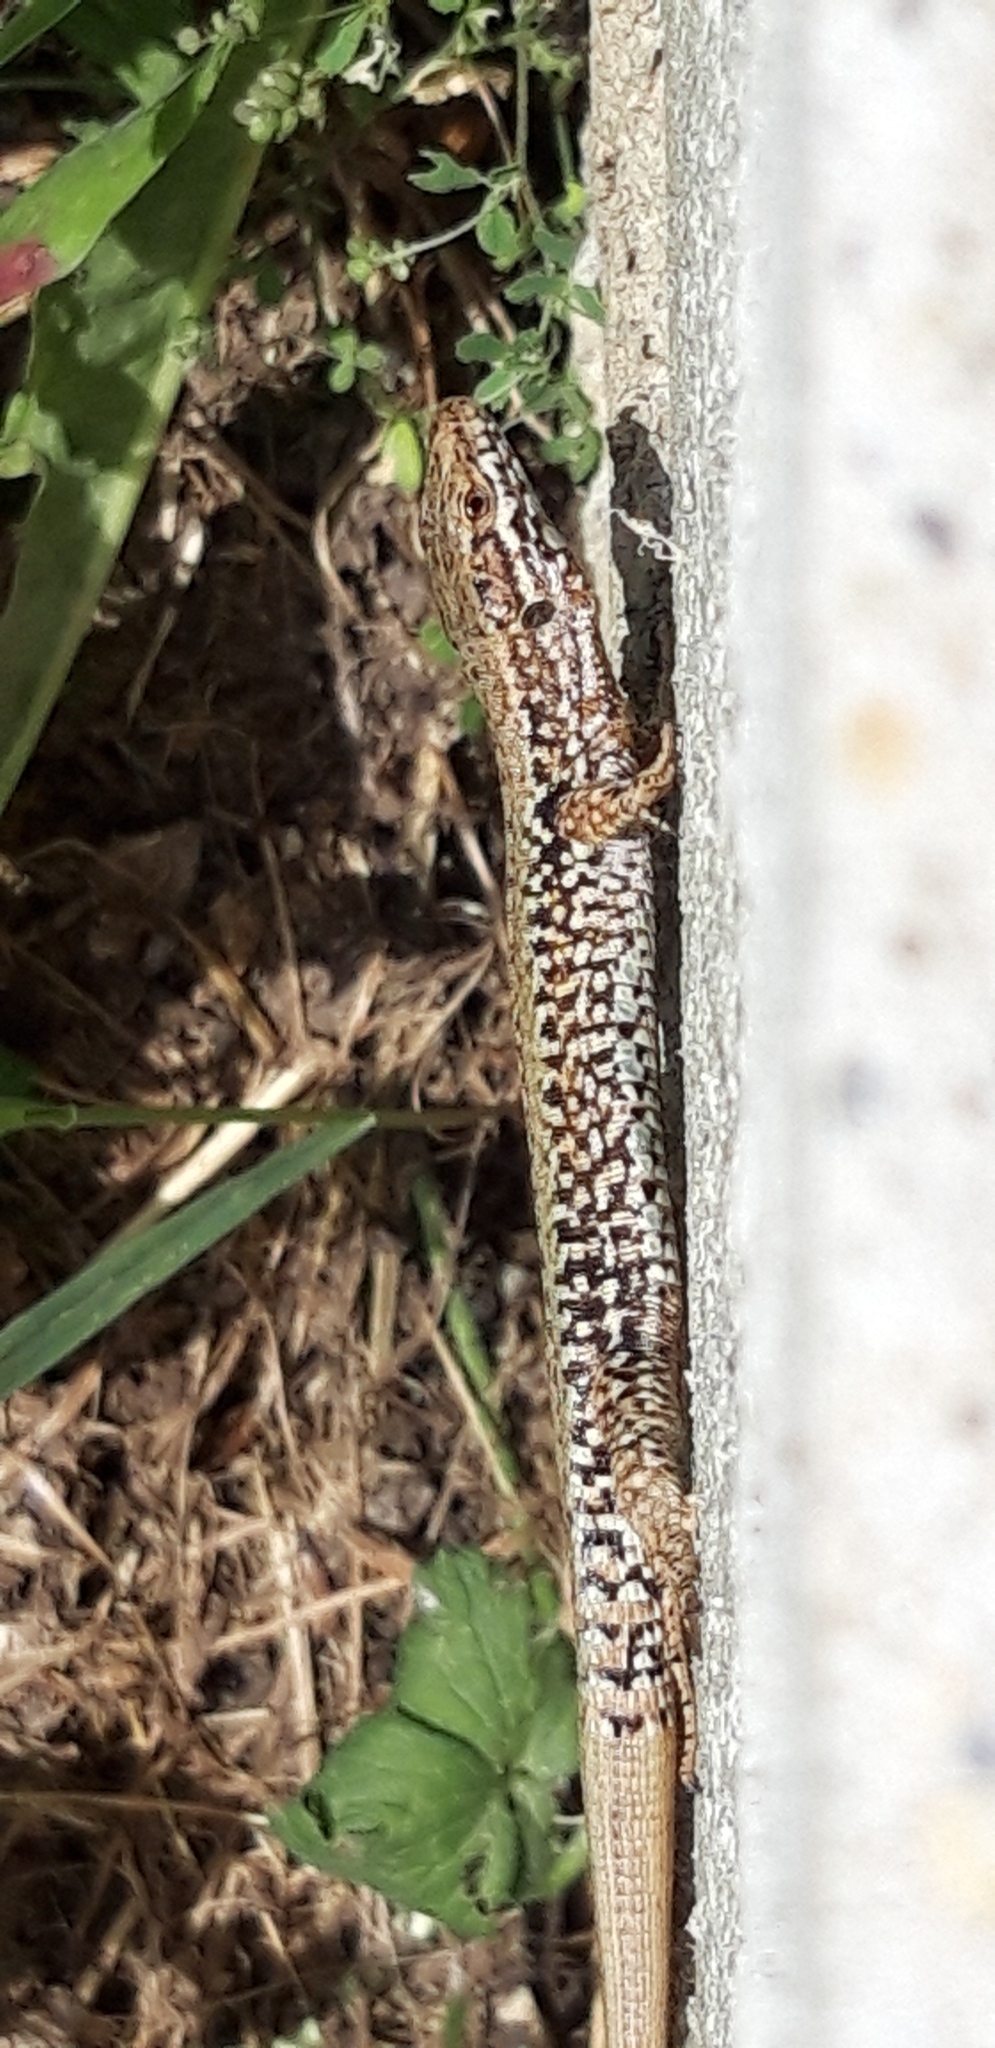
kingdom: Animalia
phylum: Chordata
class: Squamata
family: Lacertidae
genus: Podarcis
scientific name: Podarcis muralis
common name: Common wall lizard
